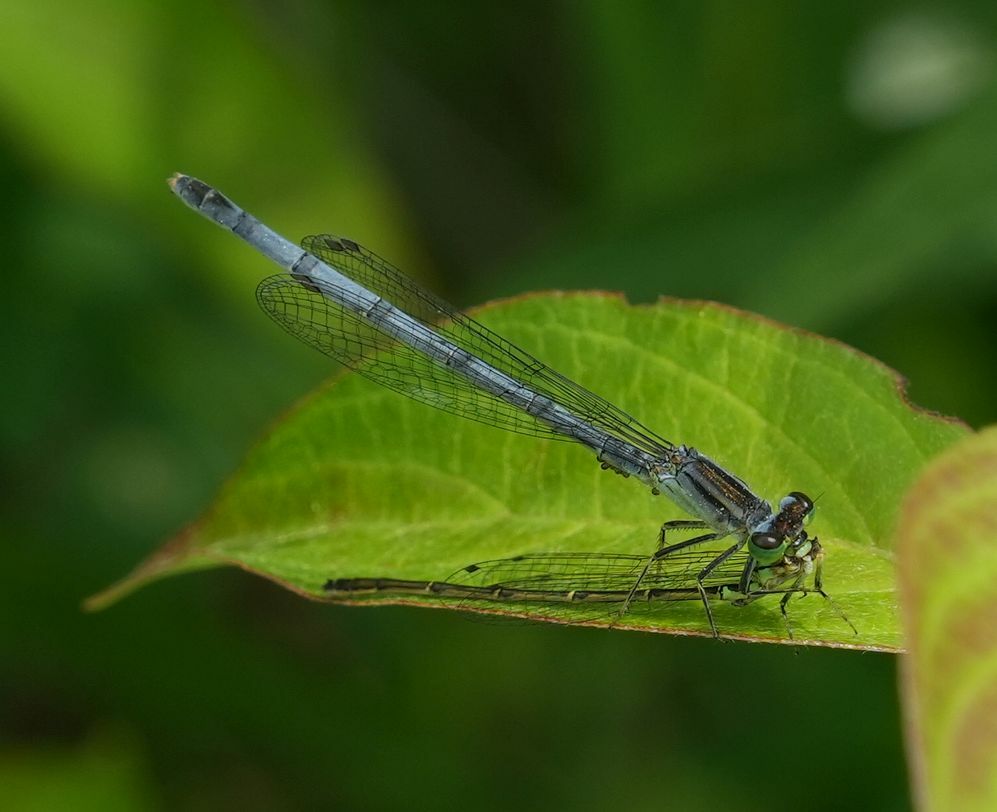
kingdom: Animalia
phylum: Arthropoda
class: Insecta
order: Odonata
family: Coenagrionidae
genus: Ischnura
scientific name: Ischnura verticalis
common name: Eastern forktail
